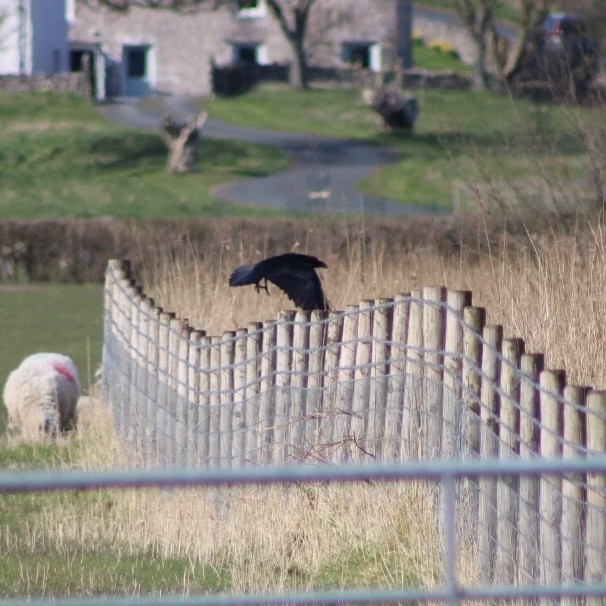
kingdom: Animalia
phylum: Chordata
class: Aves
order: Passeriformes
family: Corvidae
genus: Corvus
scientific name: Corvus corax
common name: Common raven
